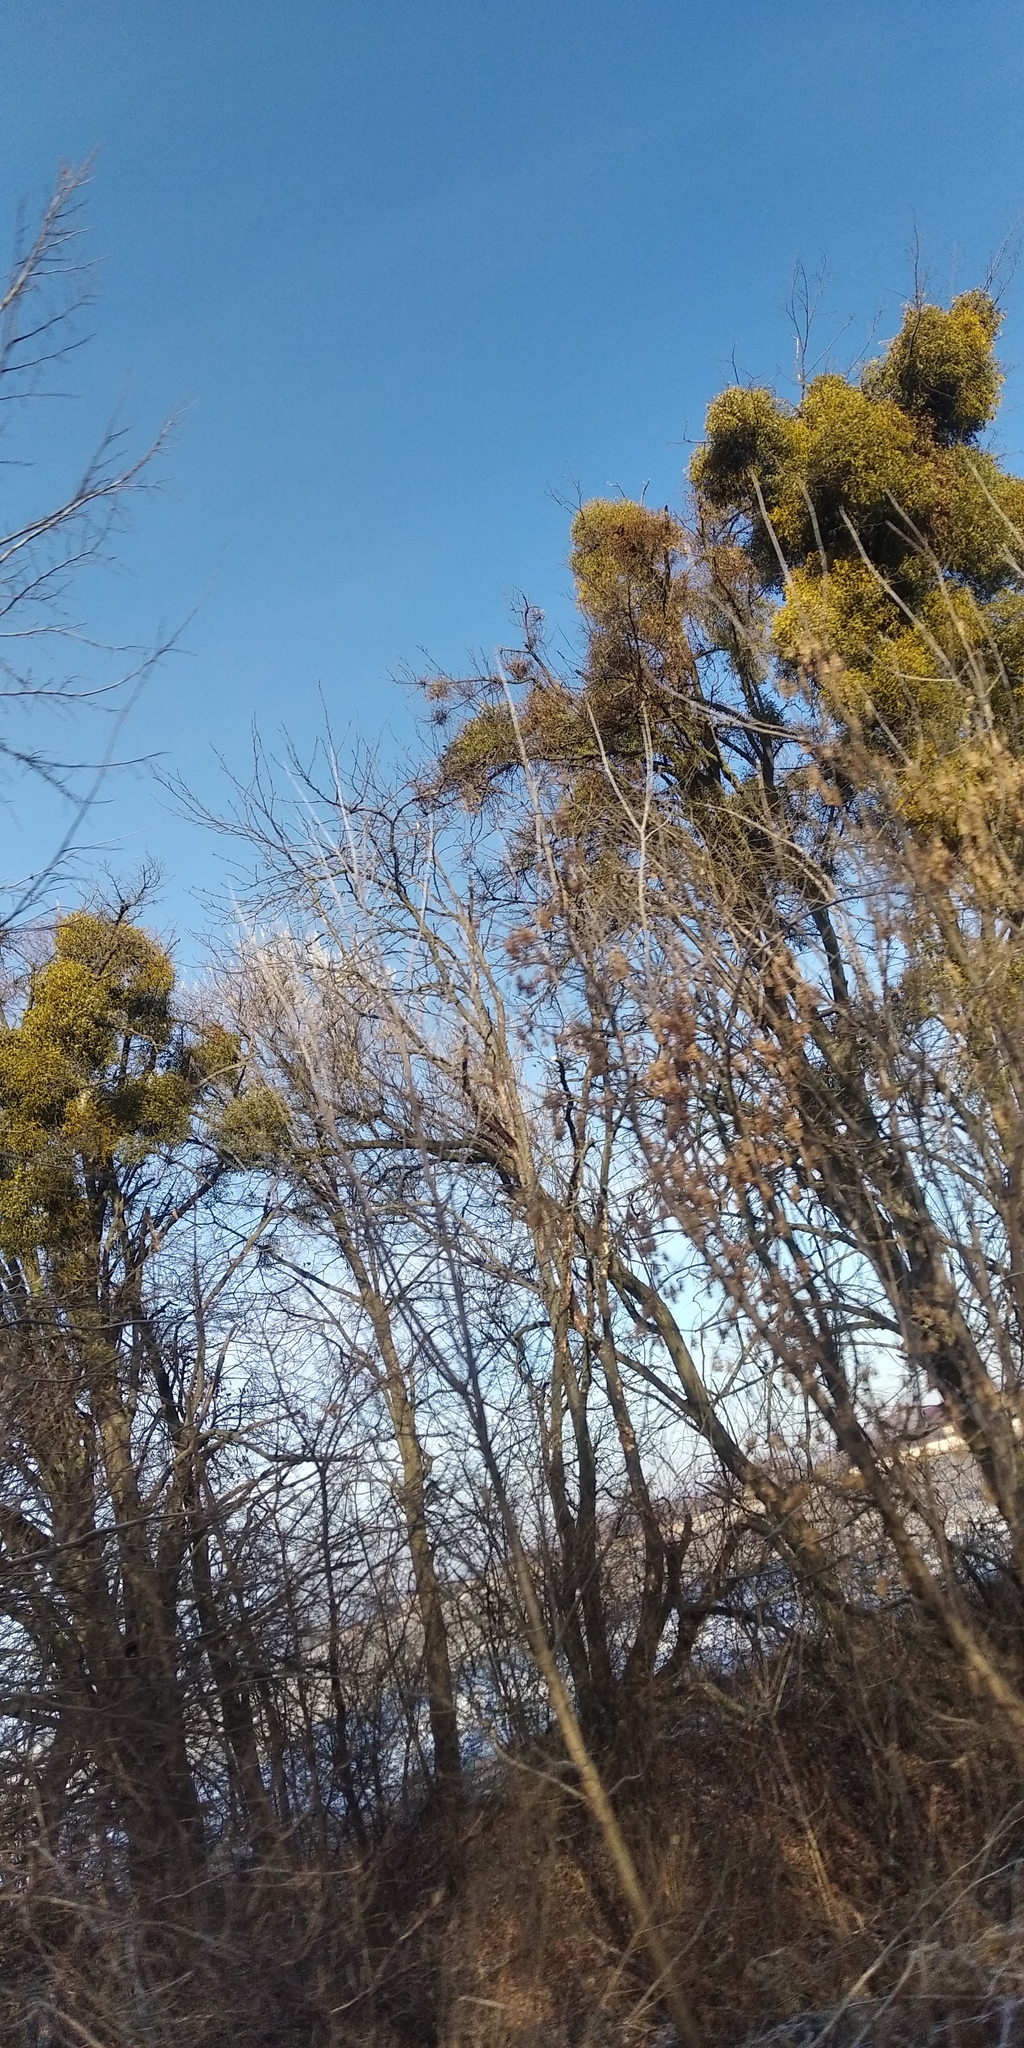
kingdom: Plantae
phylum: Tracheophyta
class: Magnoliopsida
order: Santalales
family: Viscaceae
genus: Viscum
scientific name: Viscum album
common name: Mistletoe
